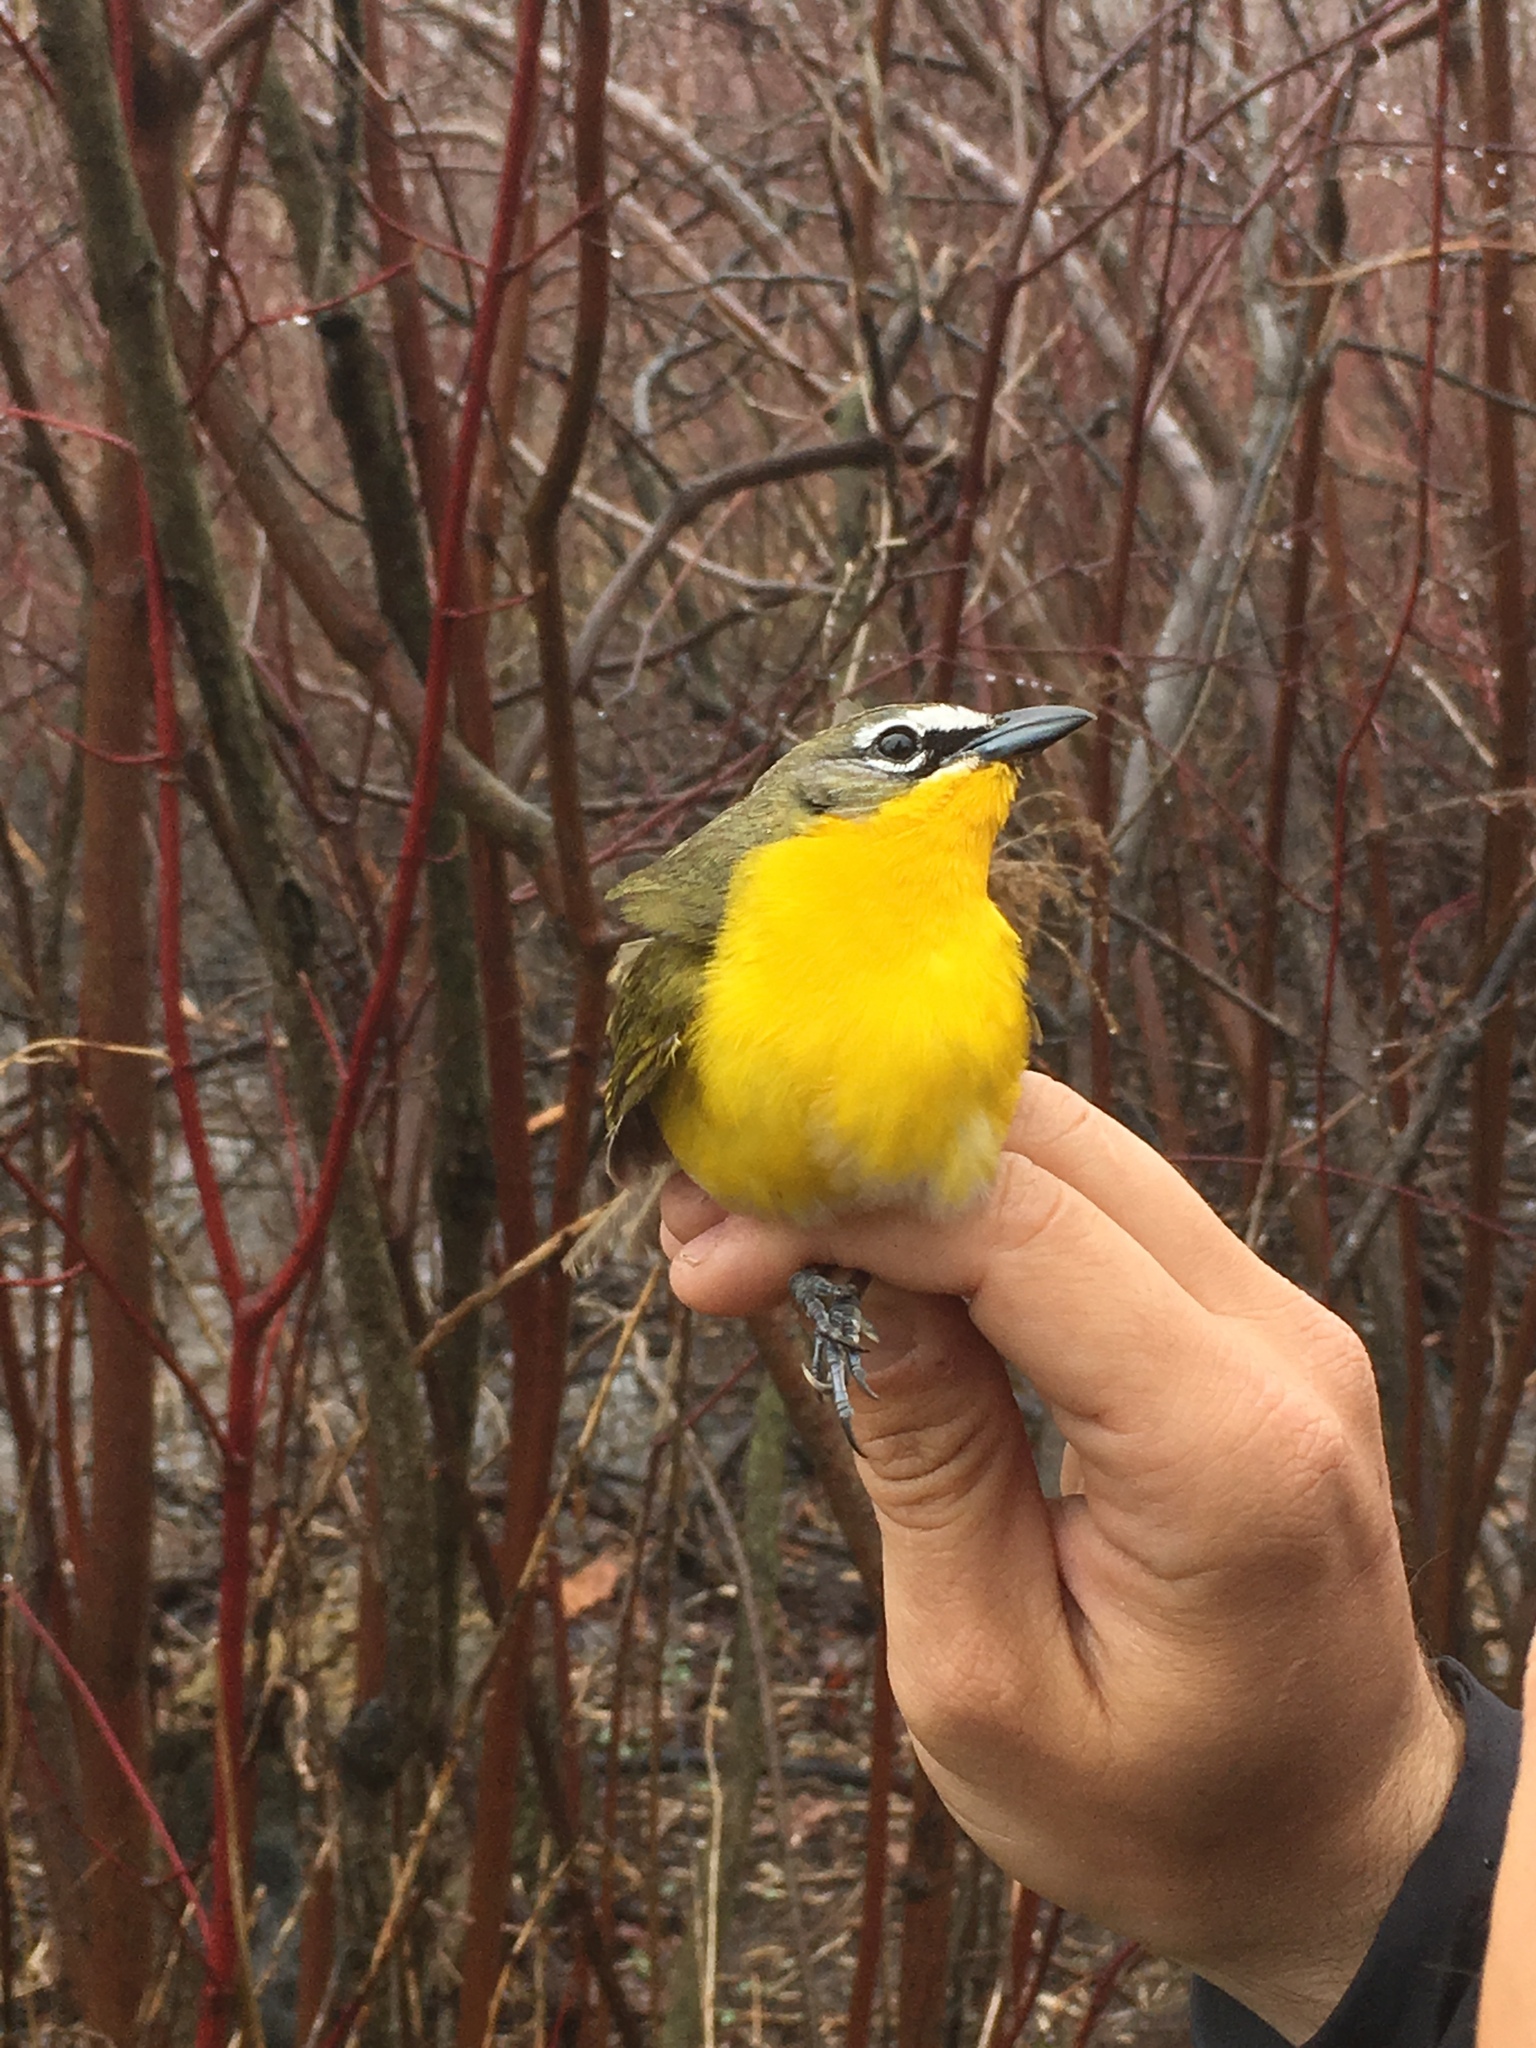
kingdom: Animalia
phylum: Chordata
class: Aves
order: Passeriformes
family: Parulidae
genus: Icteria
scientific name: Icteria virens
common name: Yellow-breasted chat
